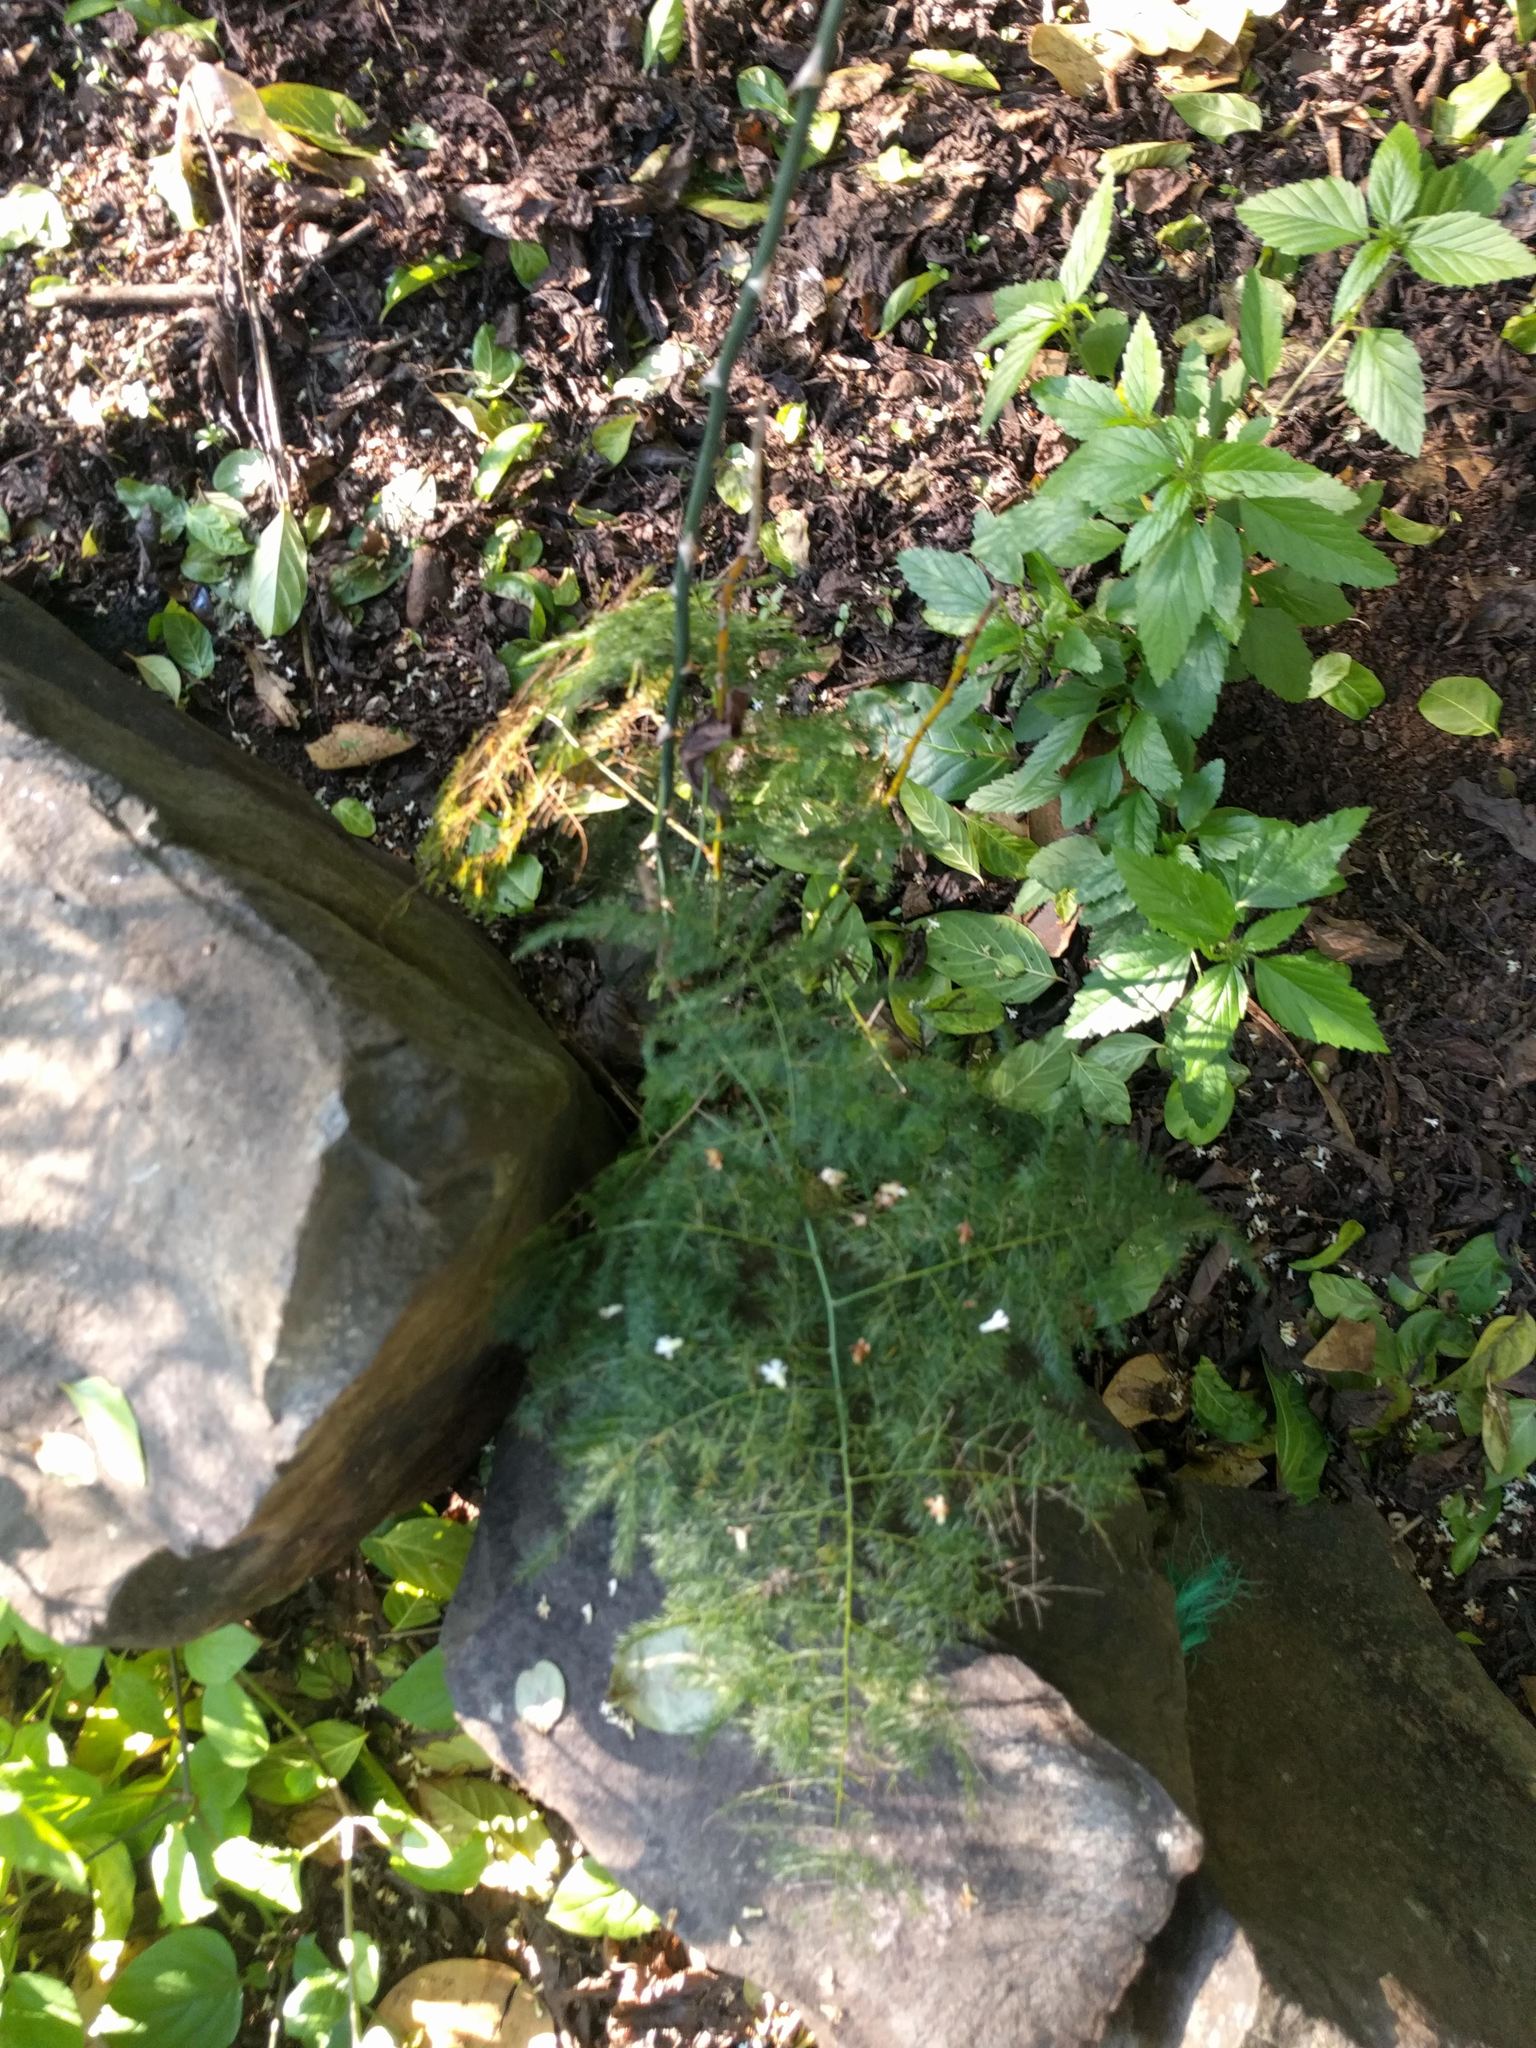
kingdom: Plantae
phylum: Tracheophyta
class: Liliopsida
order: Asparagales
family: Asparagaceae
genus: Asparagus
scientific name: Asparagus setaceus
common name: Common asparagus fern
